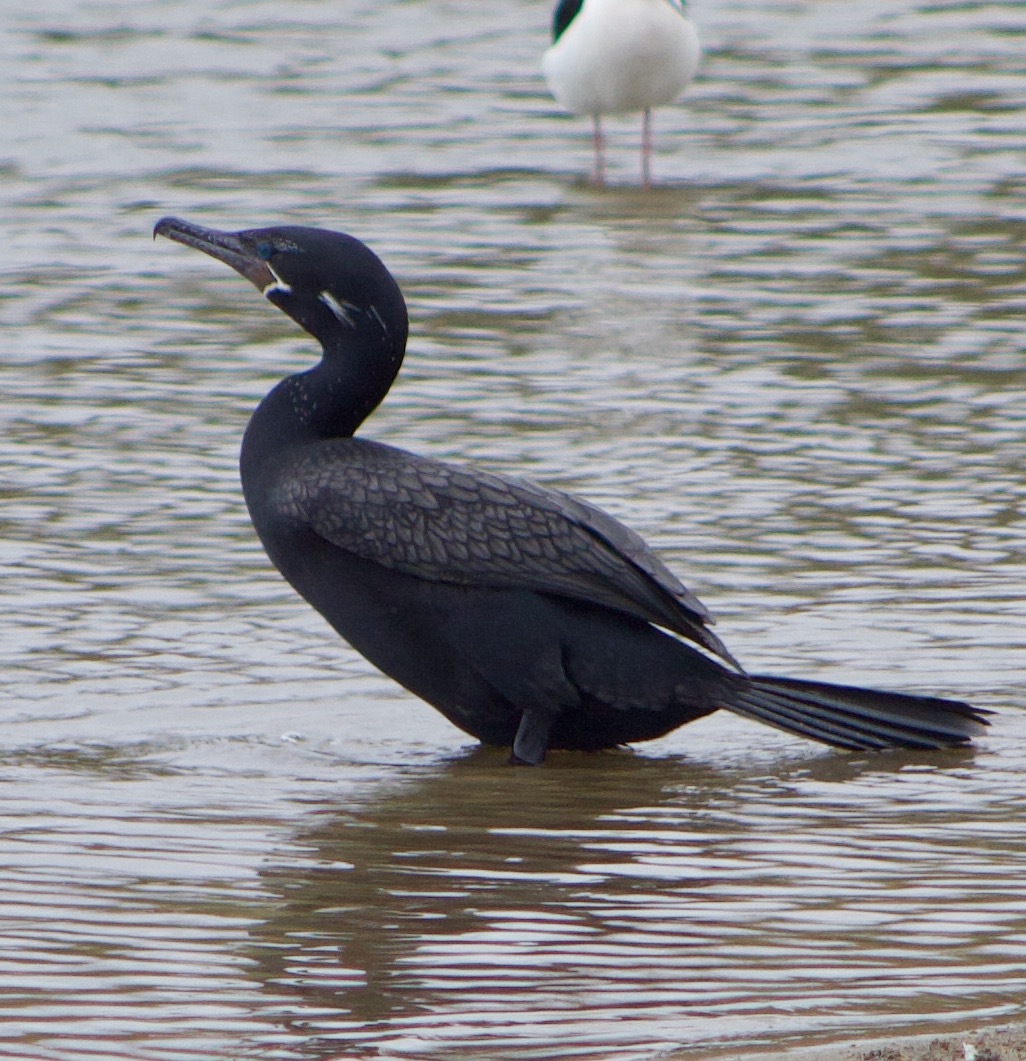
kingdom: Animalia
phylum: Chordata
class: Aves
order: Suliformes
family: Phalacrocoracidae
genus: Phalacrocorax
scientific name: Phalacrocorax brasilianus
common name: Neotropic cormorant
